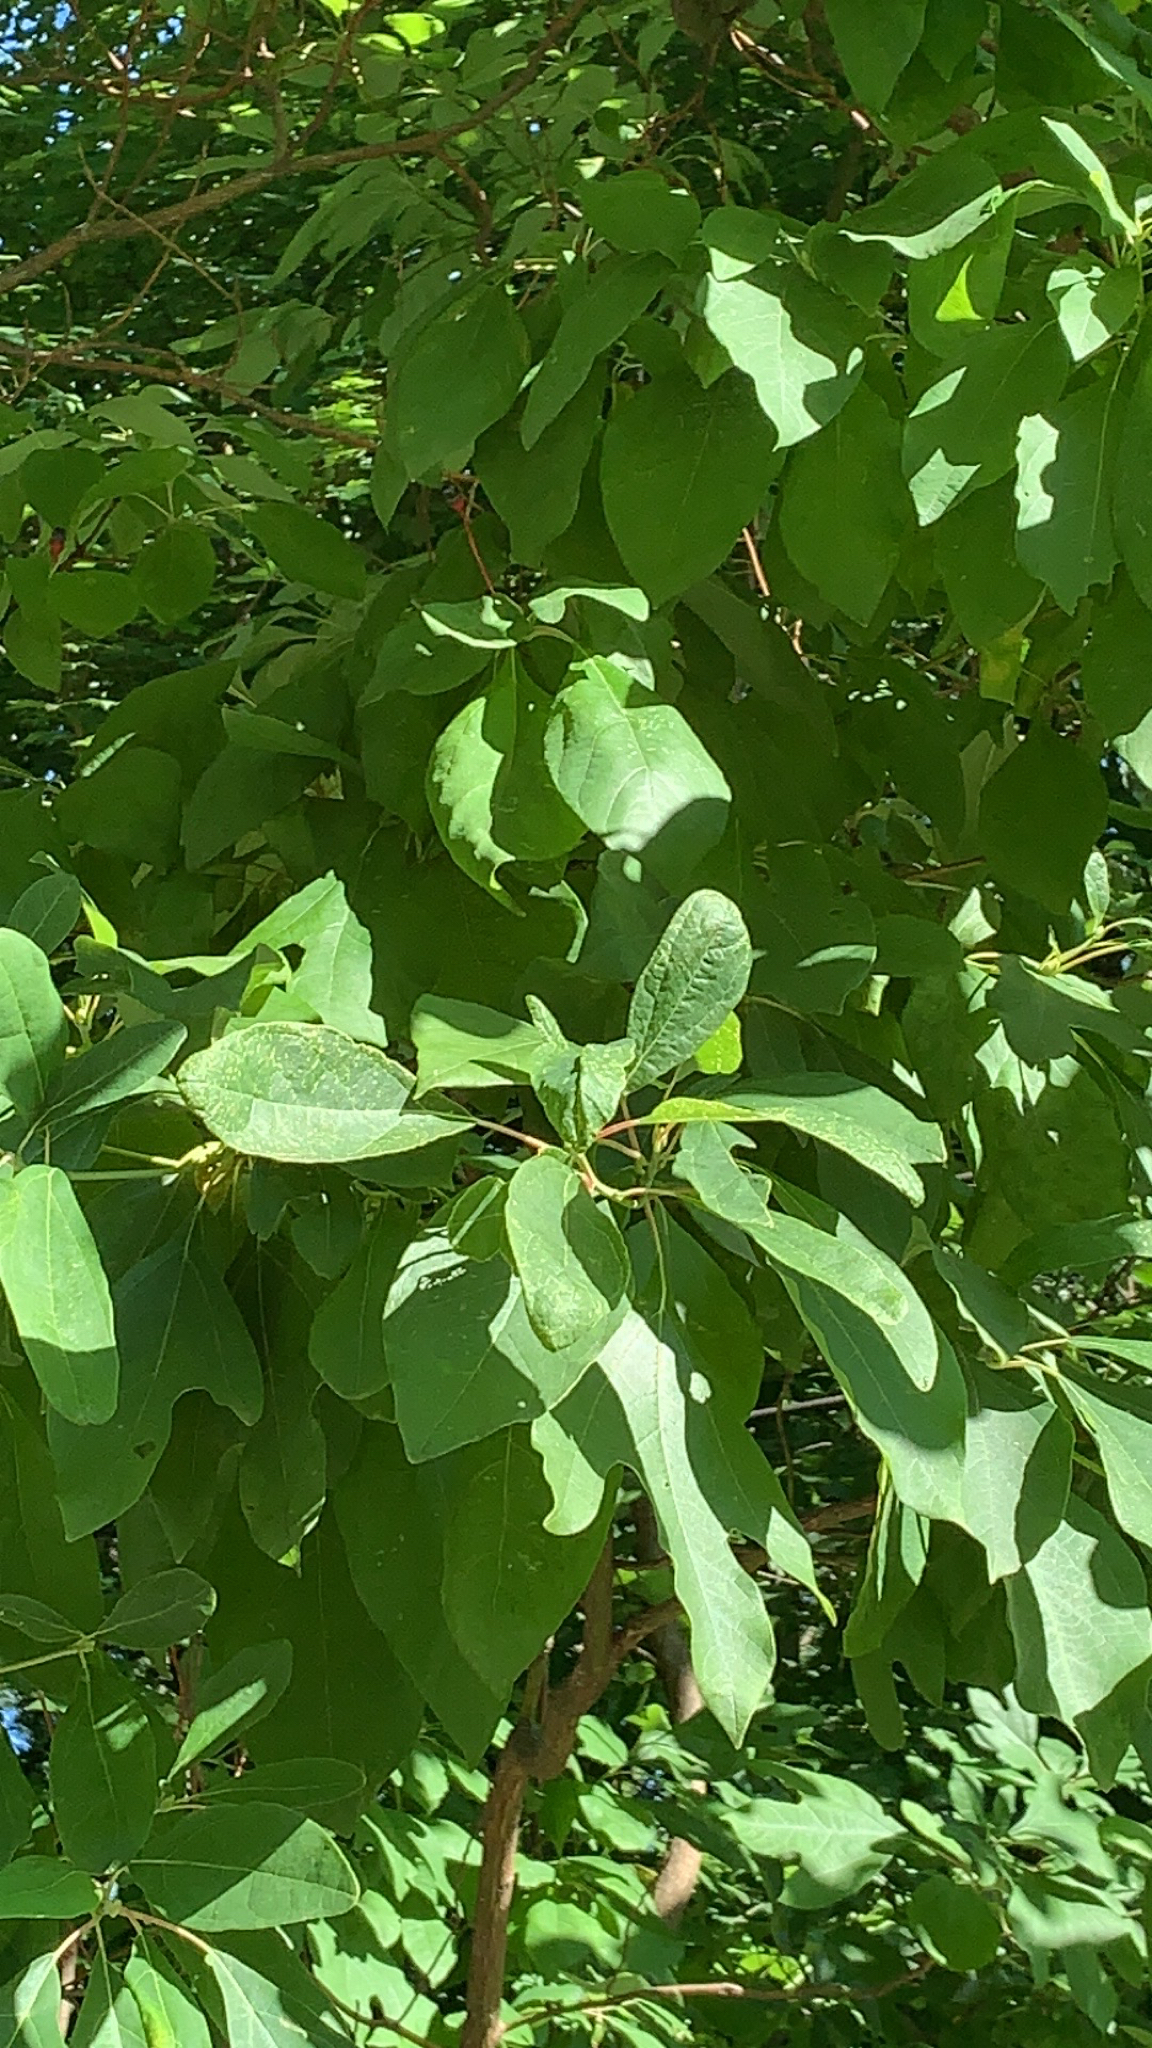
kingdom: Plantae
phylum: Tracheophyta
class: Magnoliopsida
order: Laurales
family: Lauraceae
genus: Sassafras
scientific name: Sassafras albidum
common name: Sassafras
